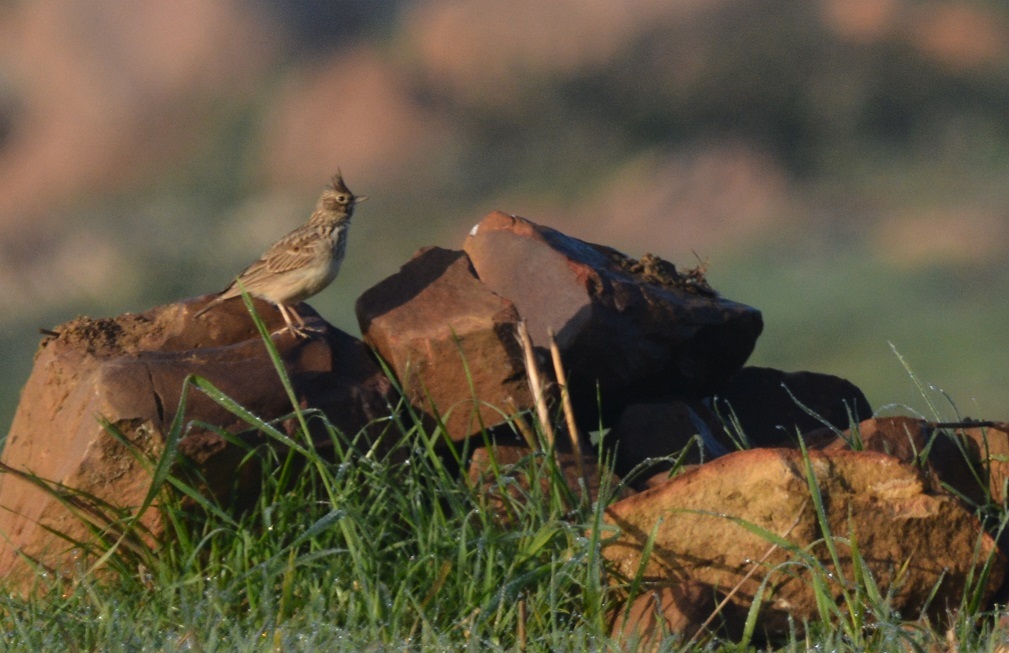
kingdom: Animalia
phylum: Chordata
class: Aves
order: Passeriformes
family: Alaudidae
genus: Galerida
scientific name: Galerida theklae
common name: Thekla lark
